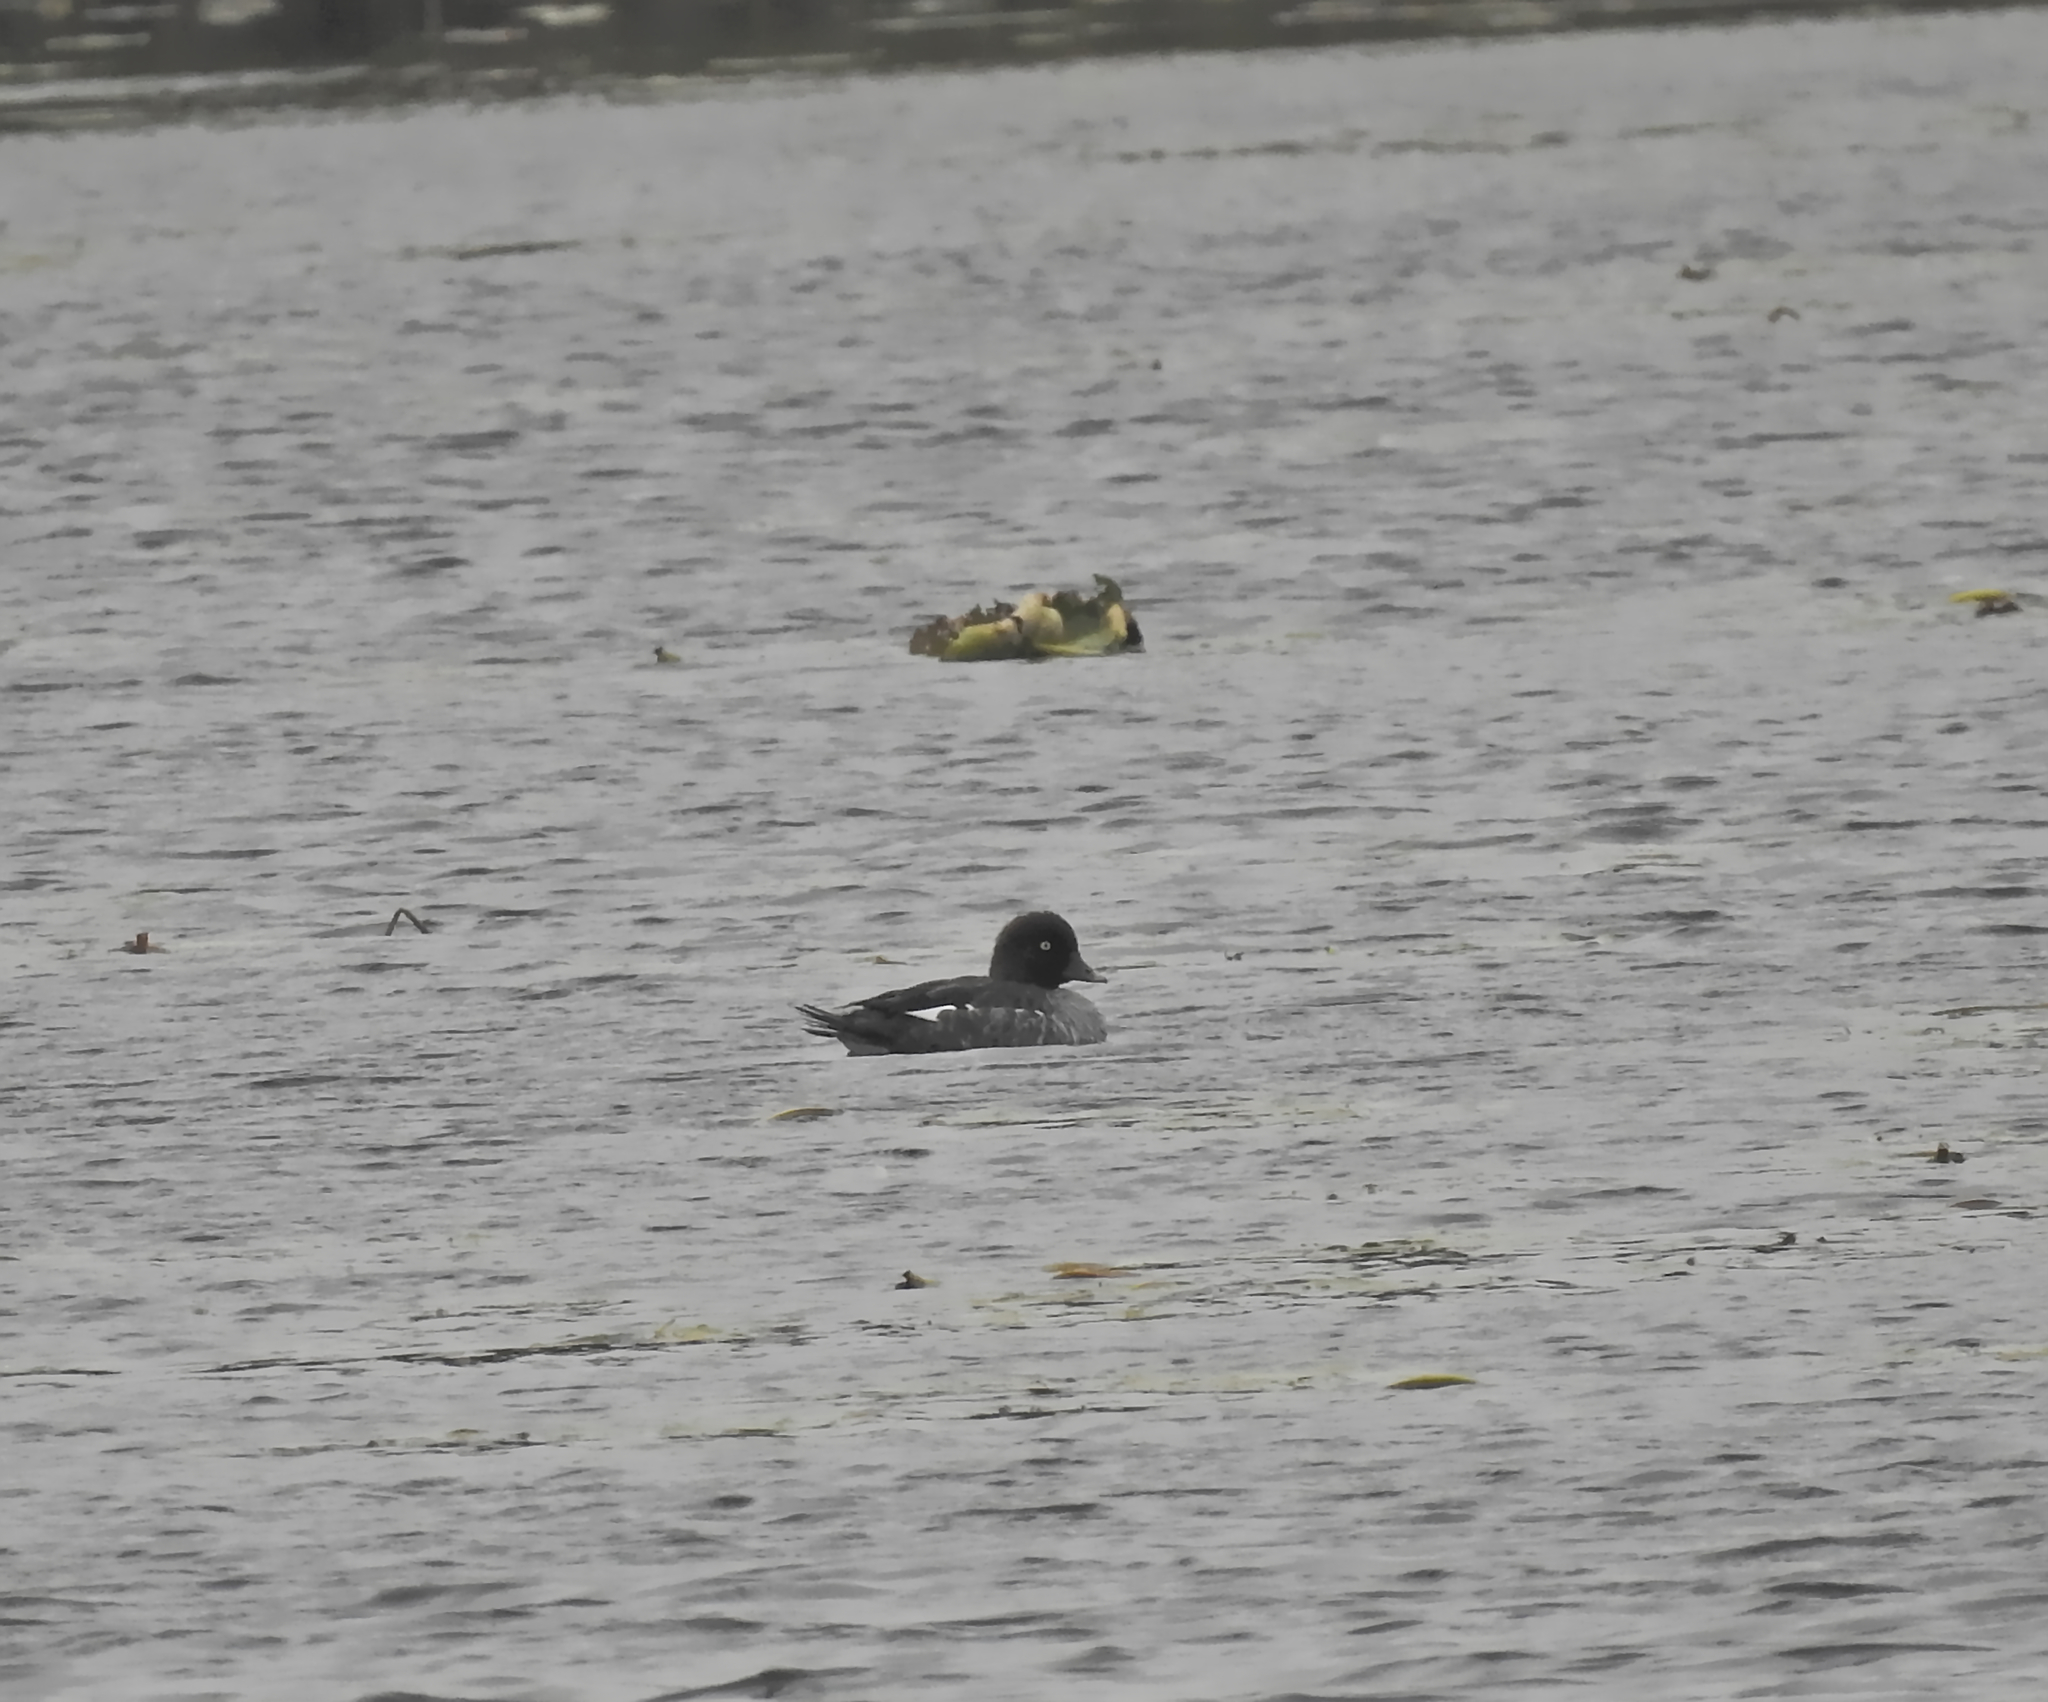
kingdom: Animalia
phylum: Chordata
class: Aves
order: Anseriformes
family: Anatidae
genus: Bucephala
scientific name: Bucephala clangula
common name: Common goldeneye
